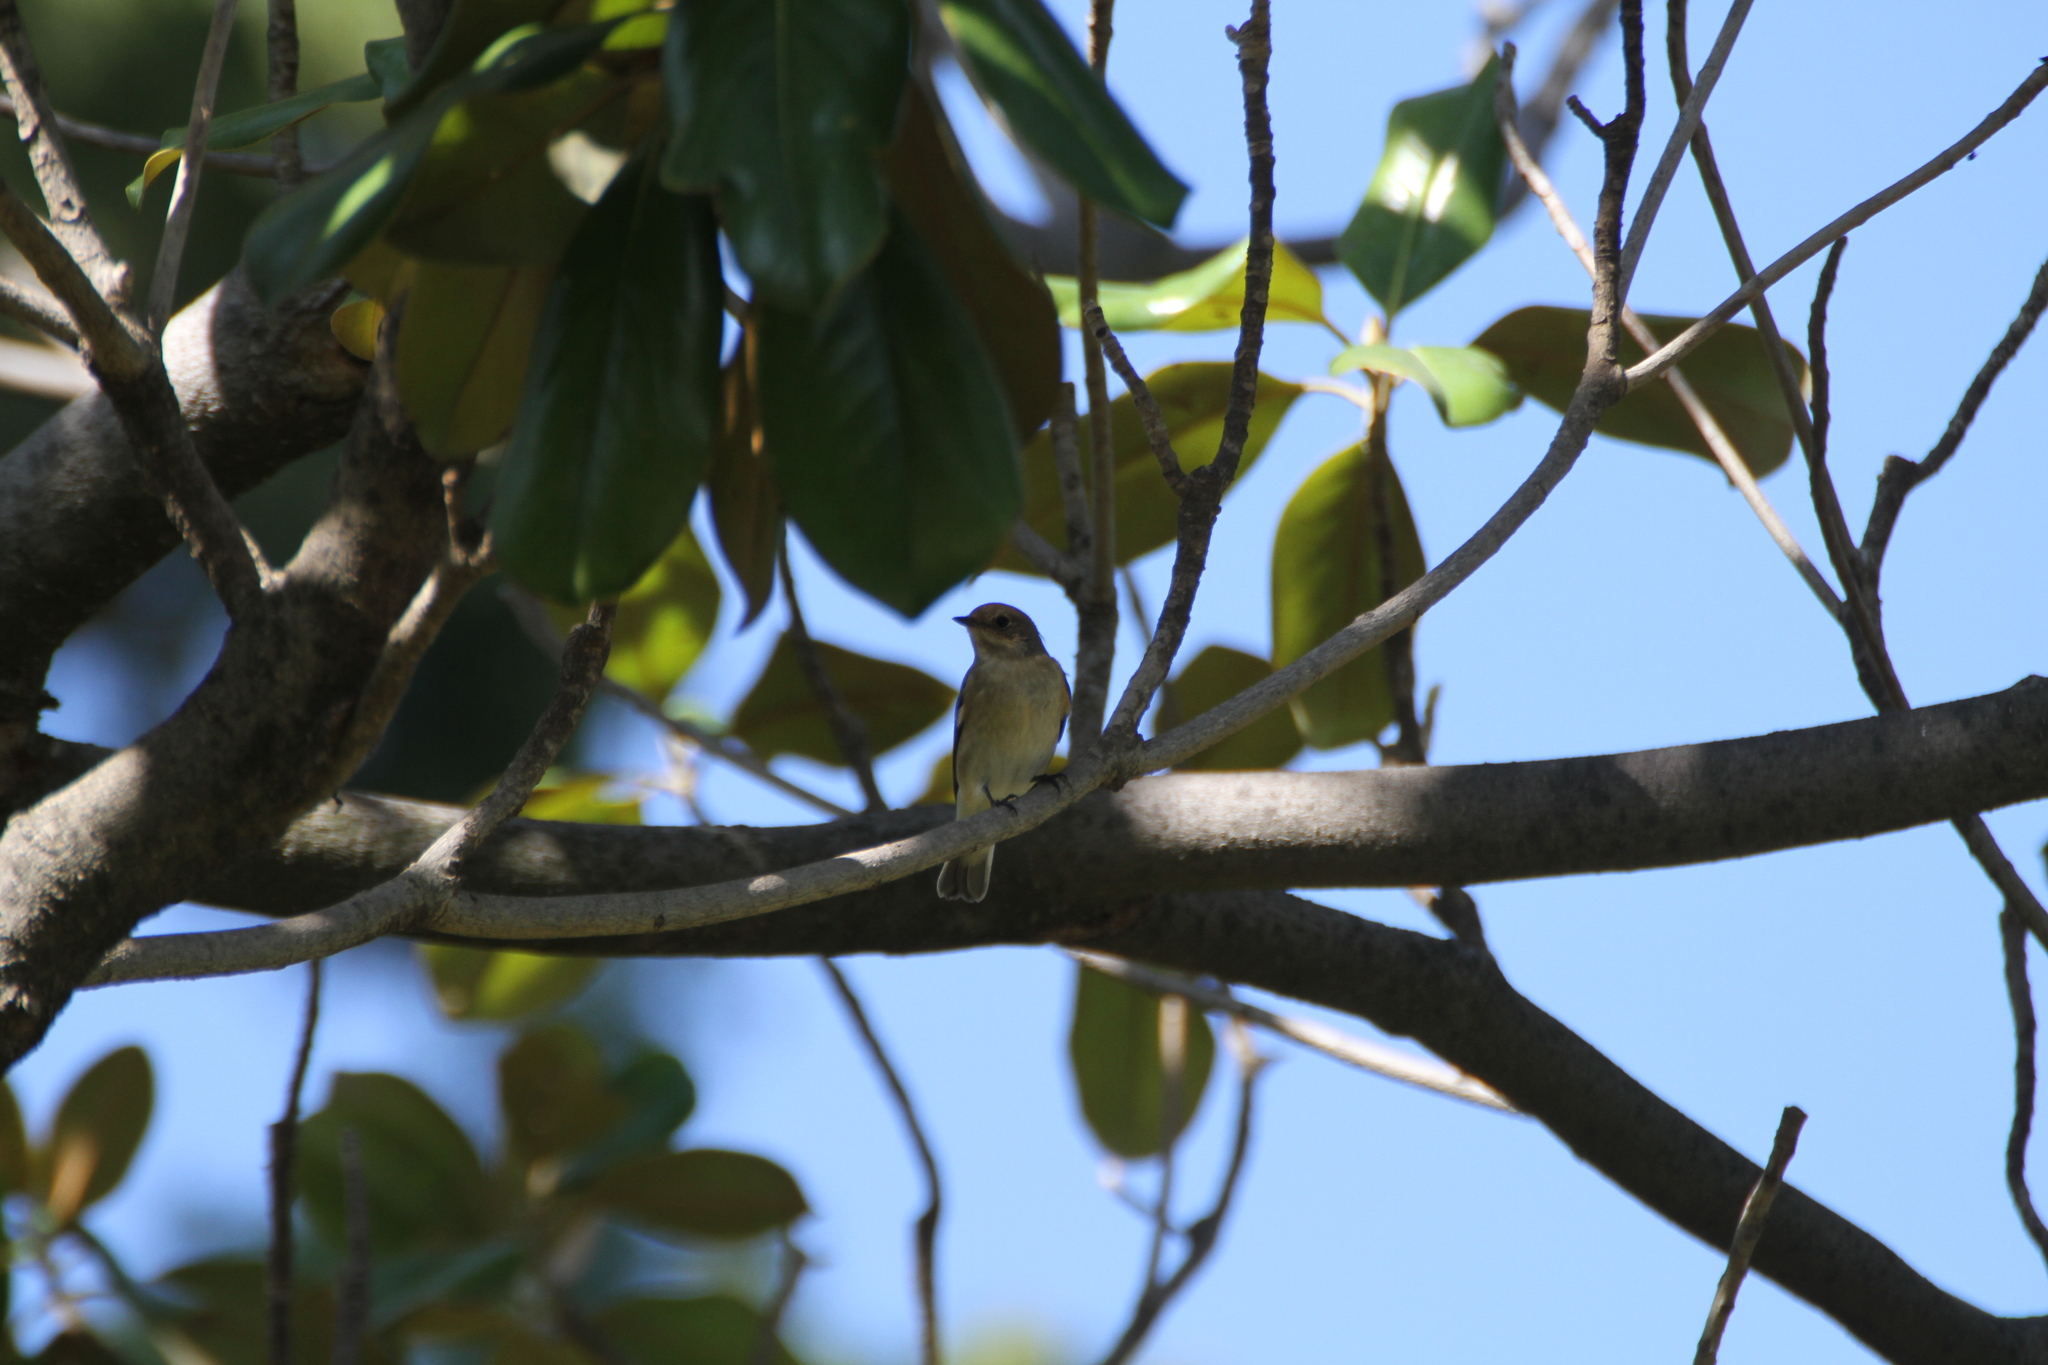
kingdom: Animalia
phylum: Chordata
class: Aves
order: Passeriformes
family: Muscicapidae
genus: Ficedula
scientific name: Ficedula hypoleuca
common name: European pied flycatcher
